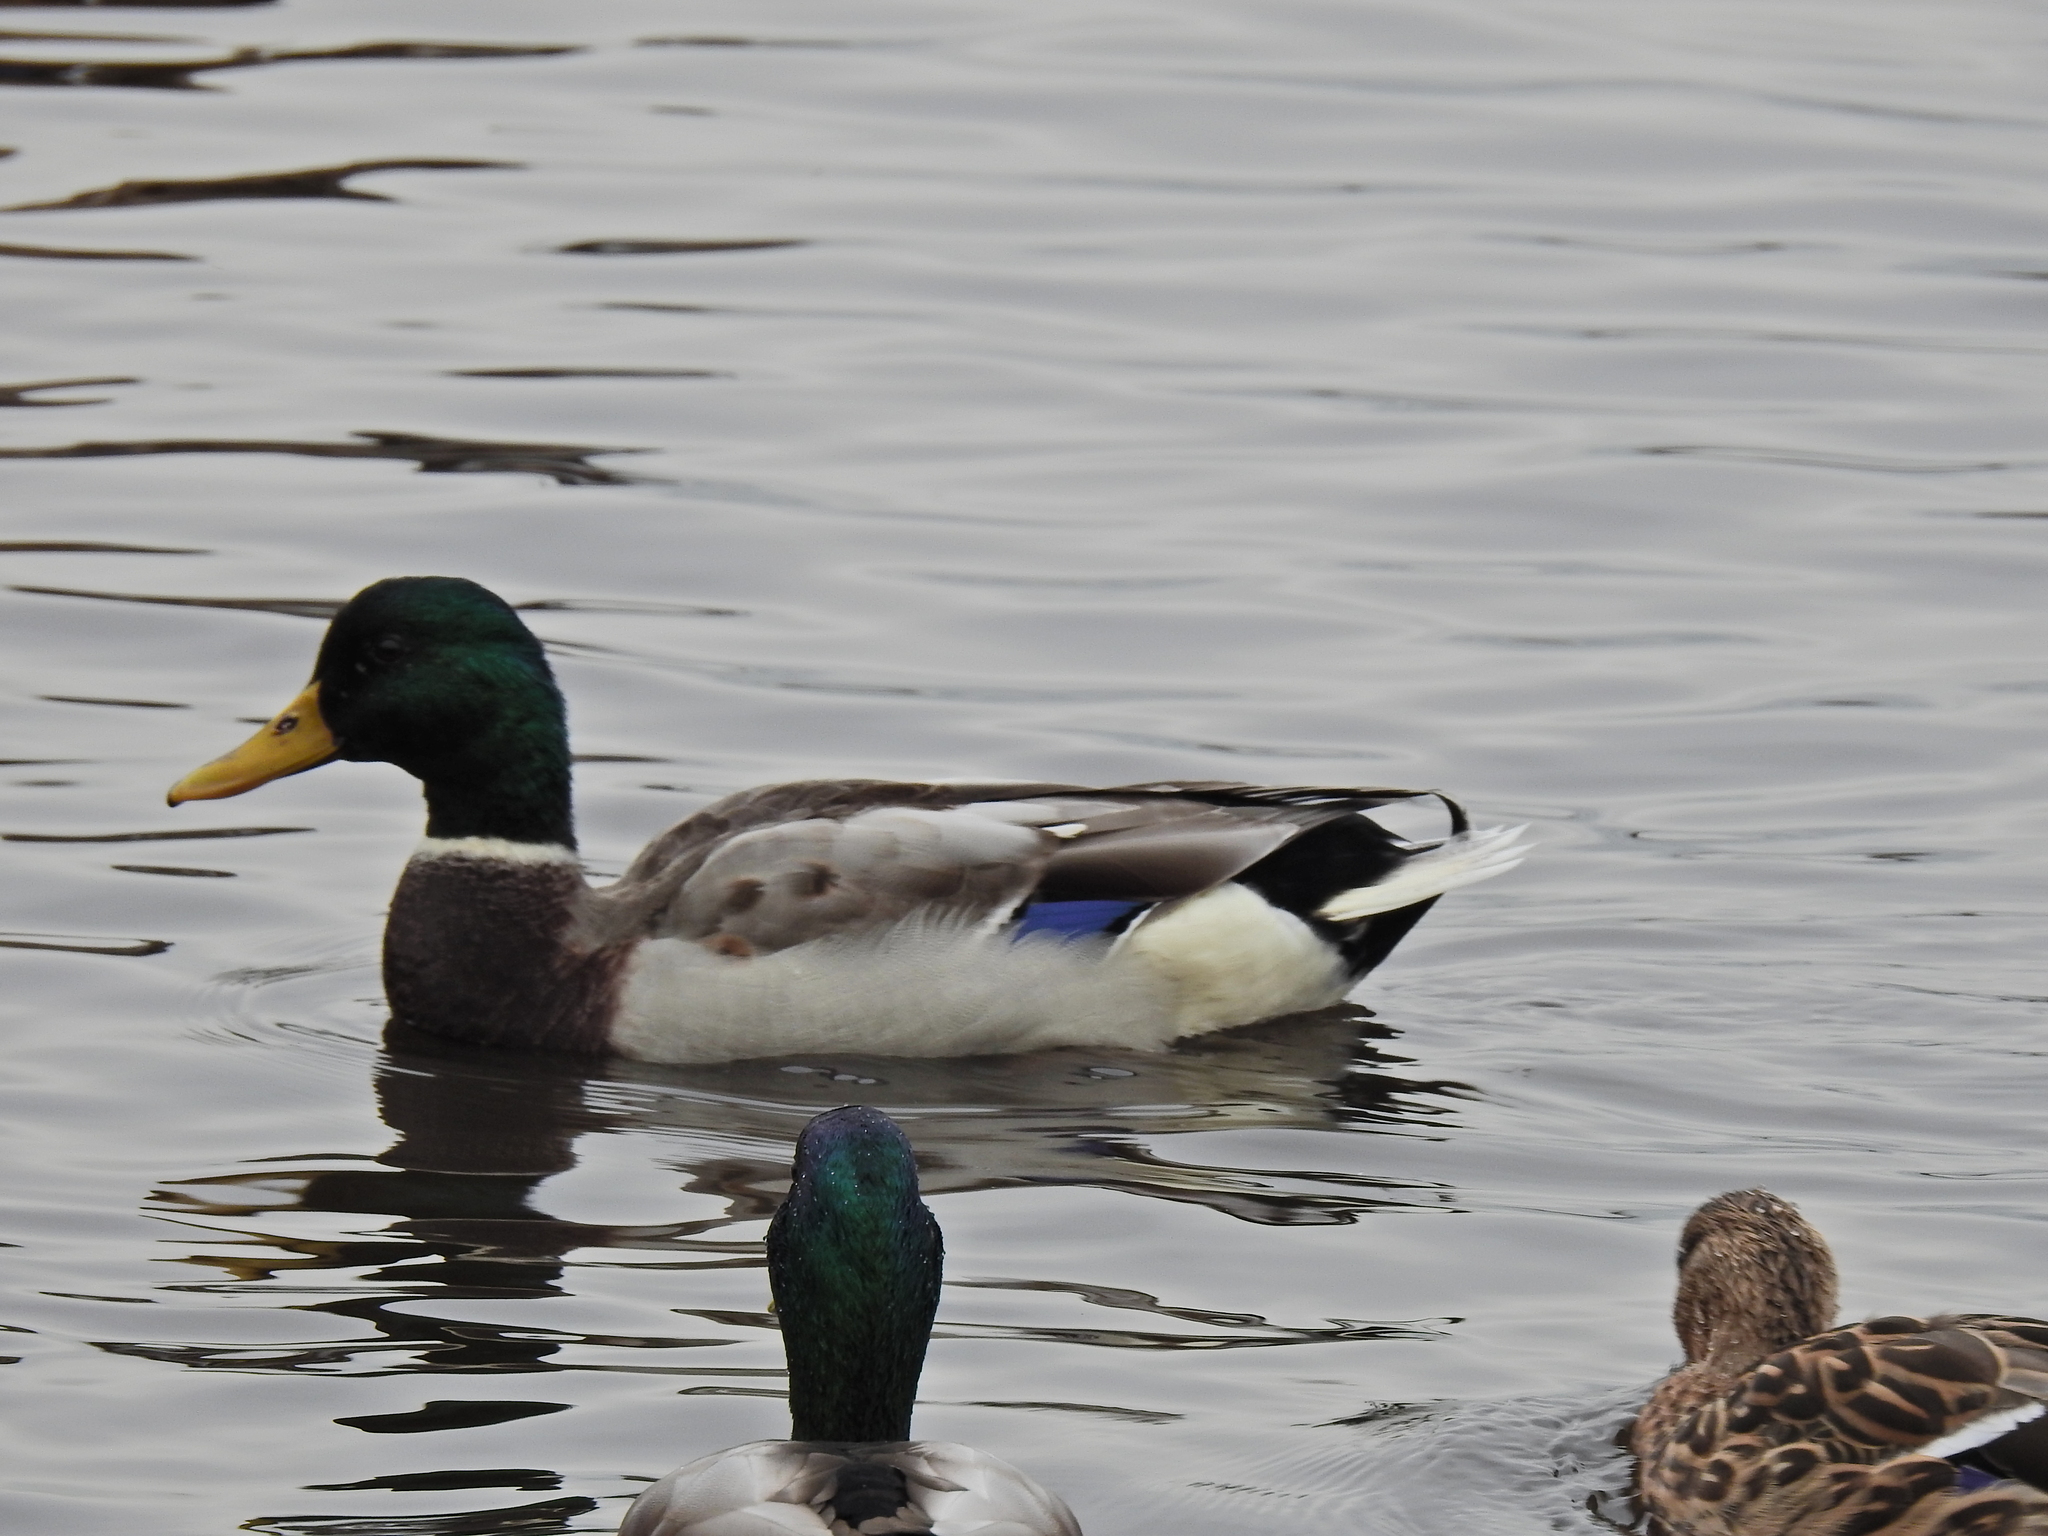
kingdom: Animalia
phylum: Chordata
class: Aves
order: Anseriformes
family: Anatidae
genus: Anas
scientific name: Anas platyrhynchos
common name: Mallard
